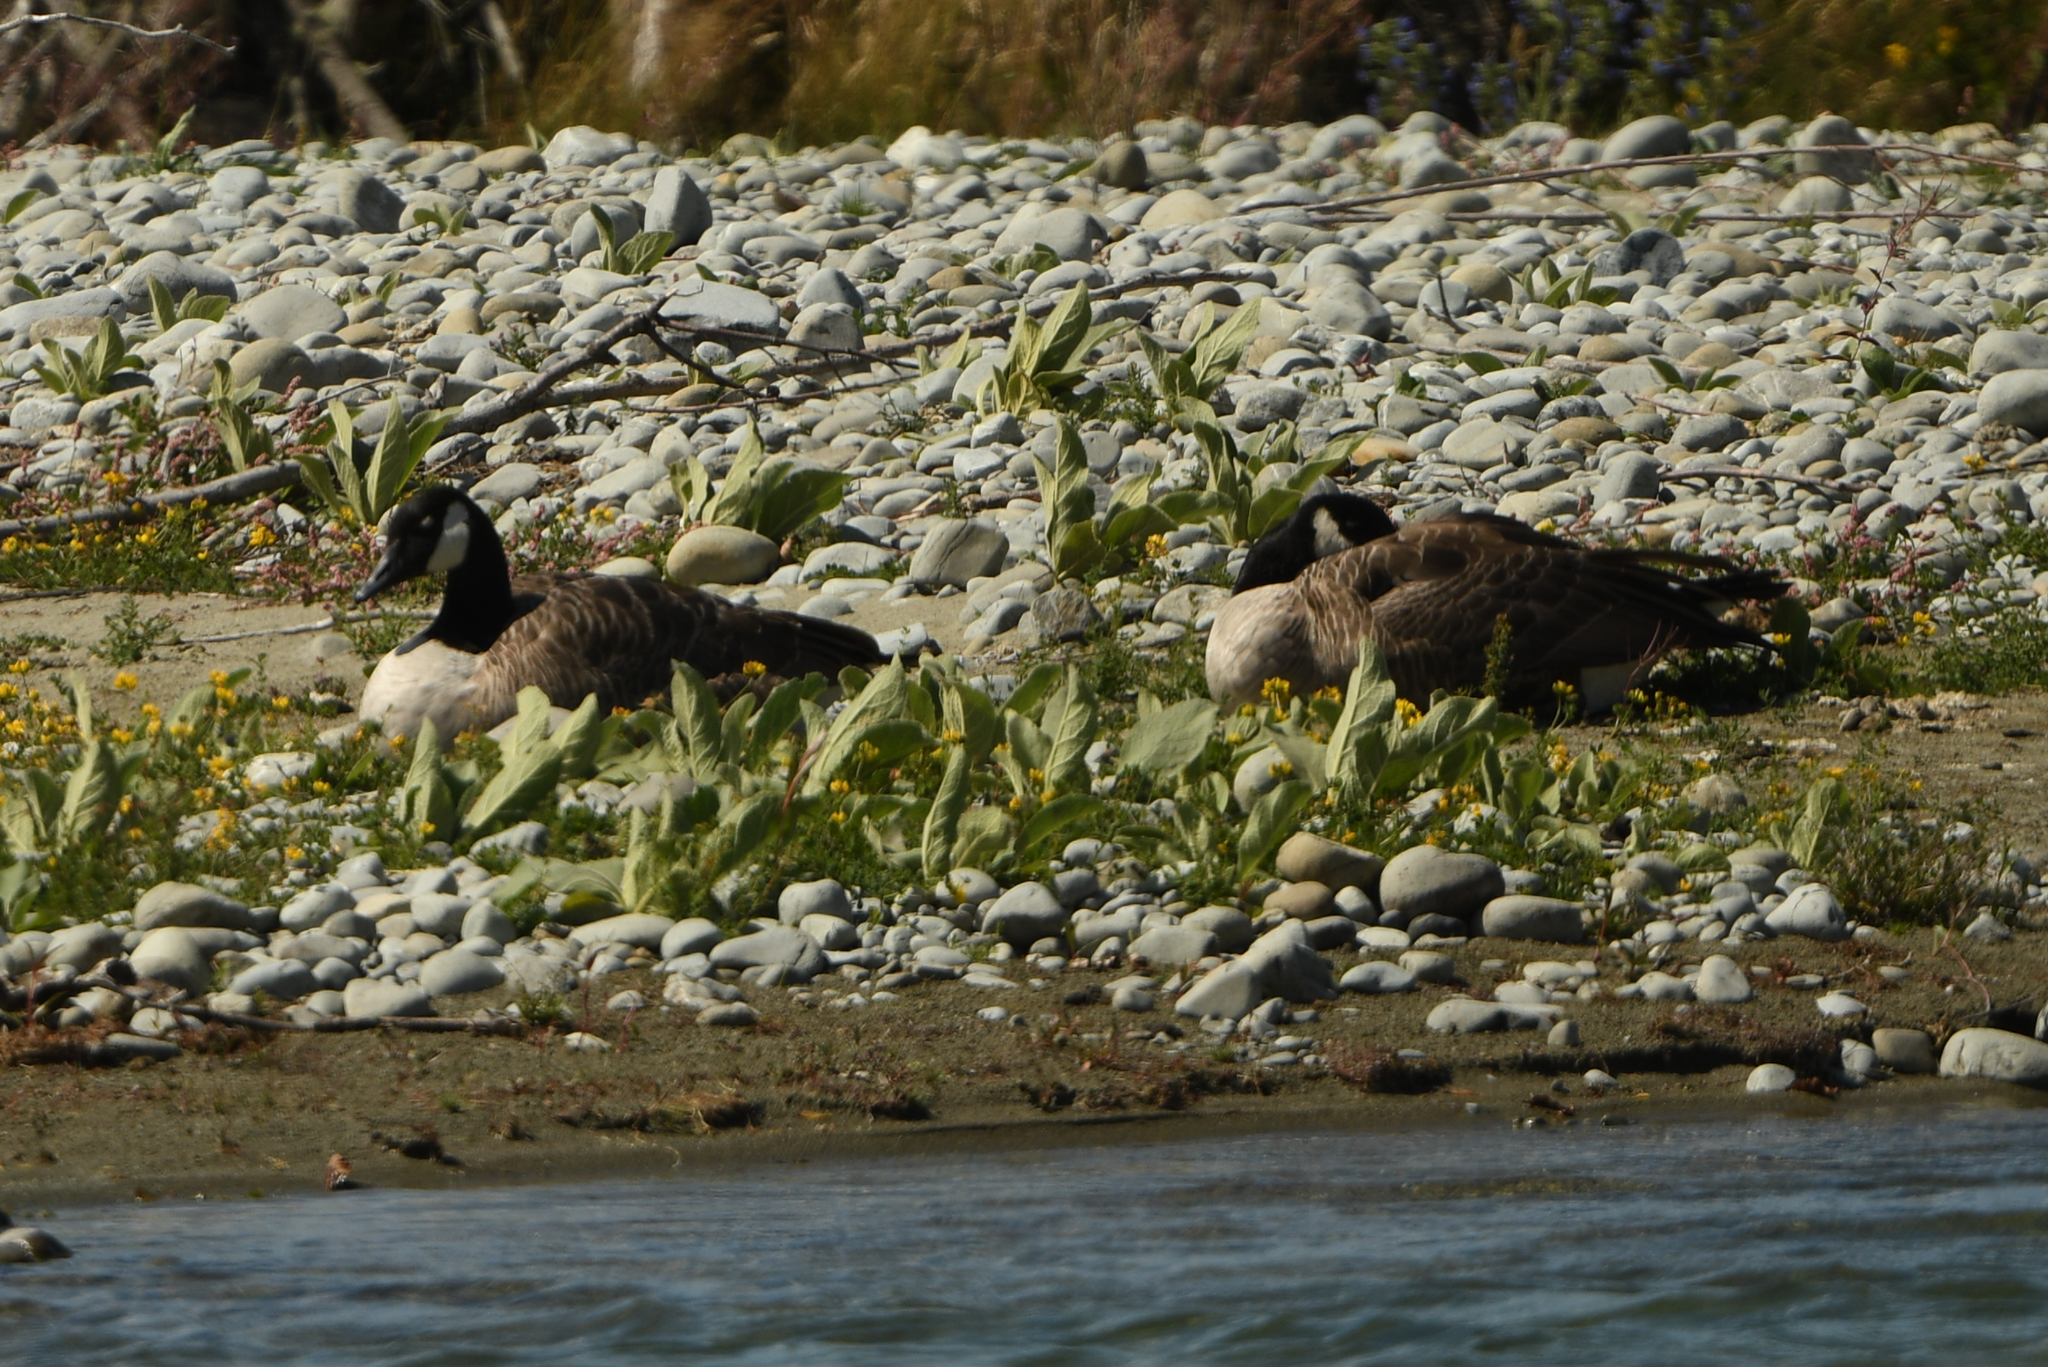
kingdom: Animalia
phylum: Chordata
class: Aves
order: Anseriformes
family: Anatidae
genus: Branta
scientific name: Branta canadensis
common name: Canada goose
